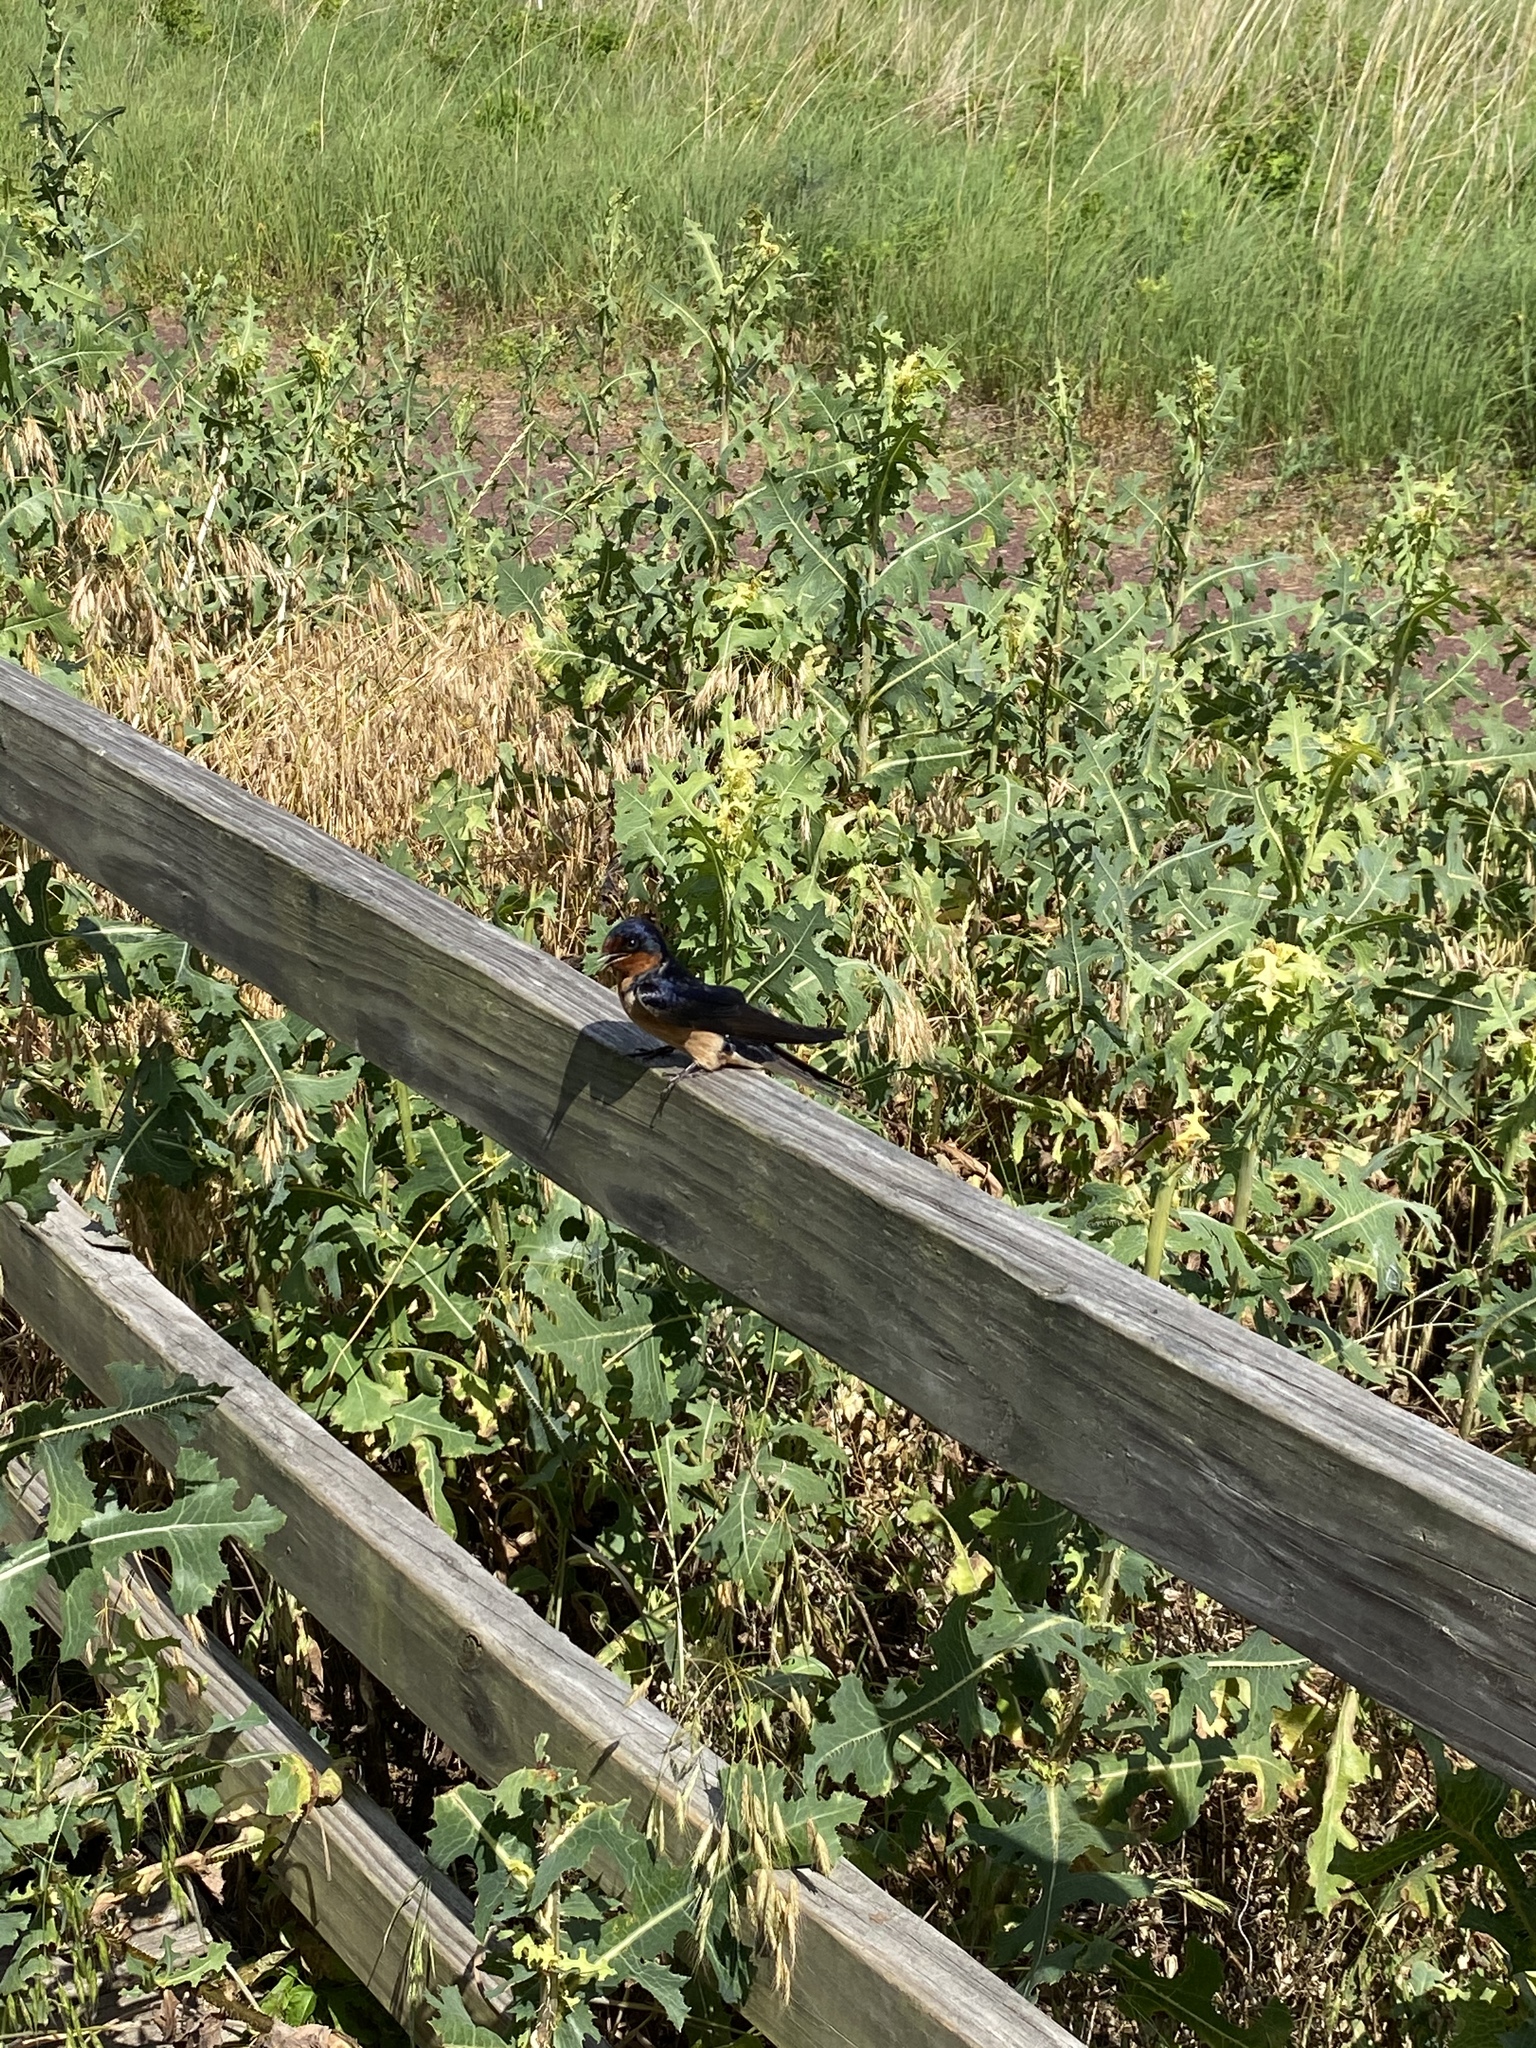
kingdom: Animalia
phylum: Chordata
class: Aves
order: Passeriformes
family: Hirundinidae
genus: Hirundo
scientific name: Hirundo rustica
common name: Barn swallow
